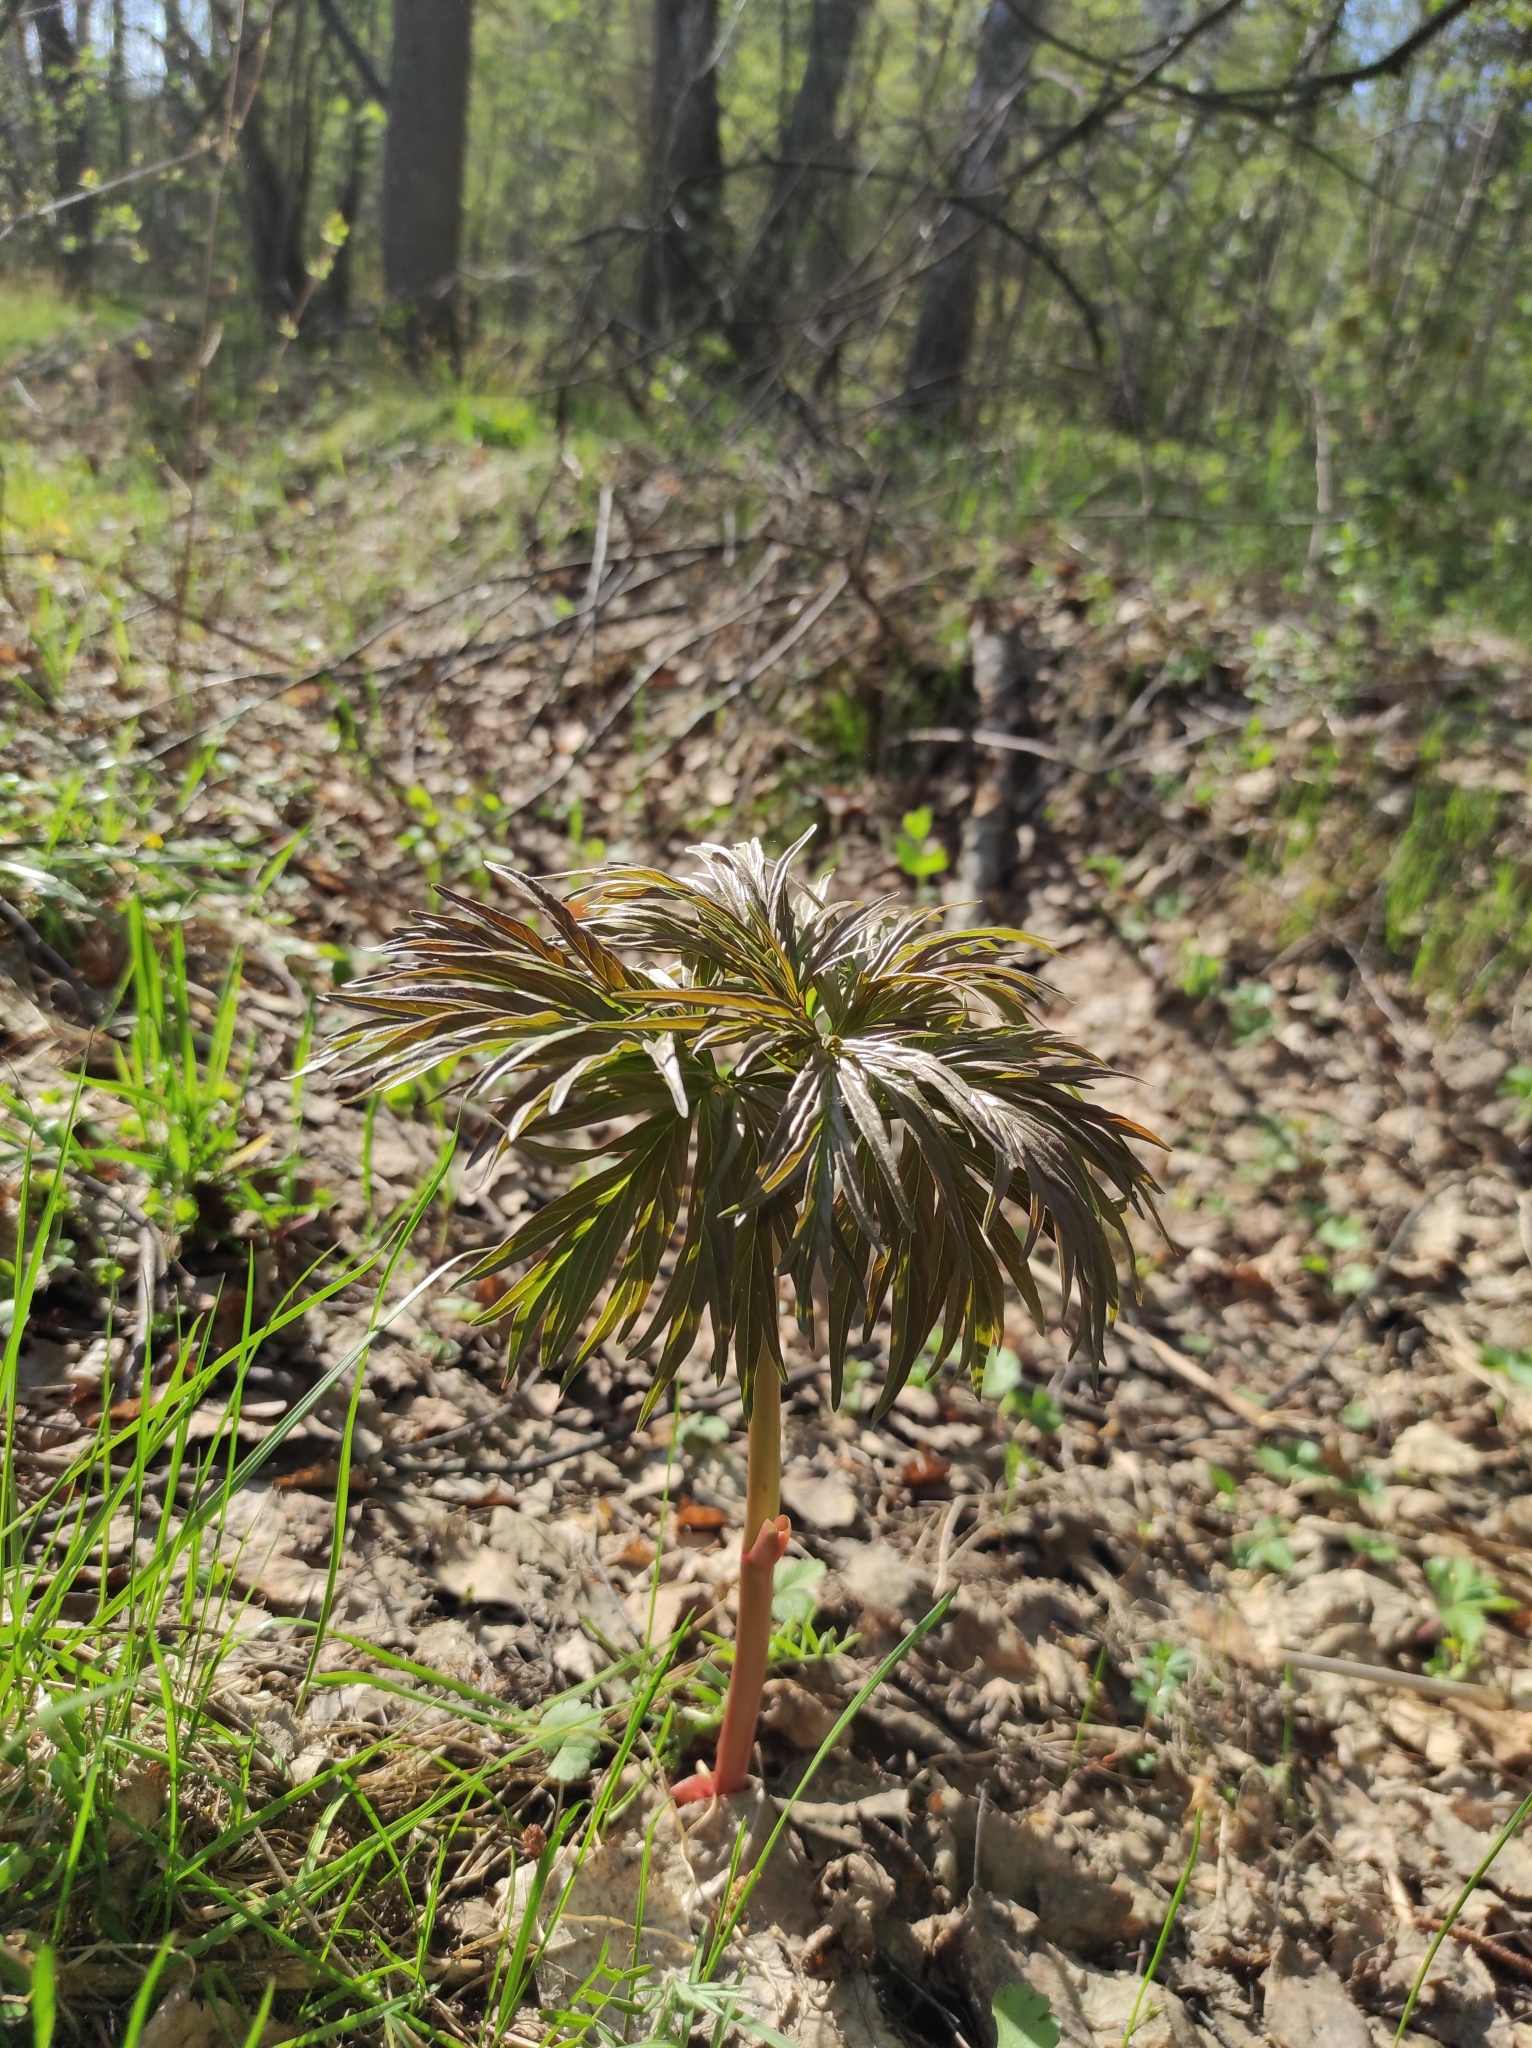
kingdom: Plantae
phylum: Tracheophyta
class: Magnoliopsida
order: Saxifragales
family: Paeoniaceae
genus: Paeonia
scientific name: Paeonia anomala
